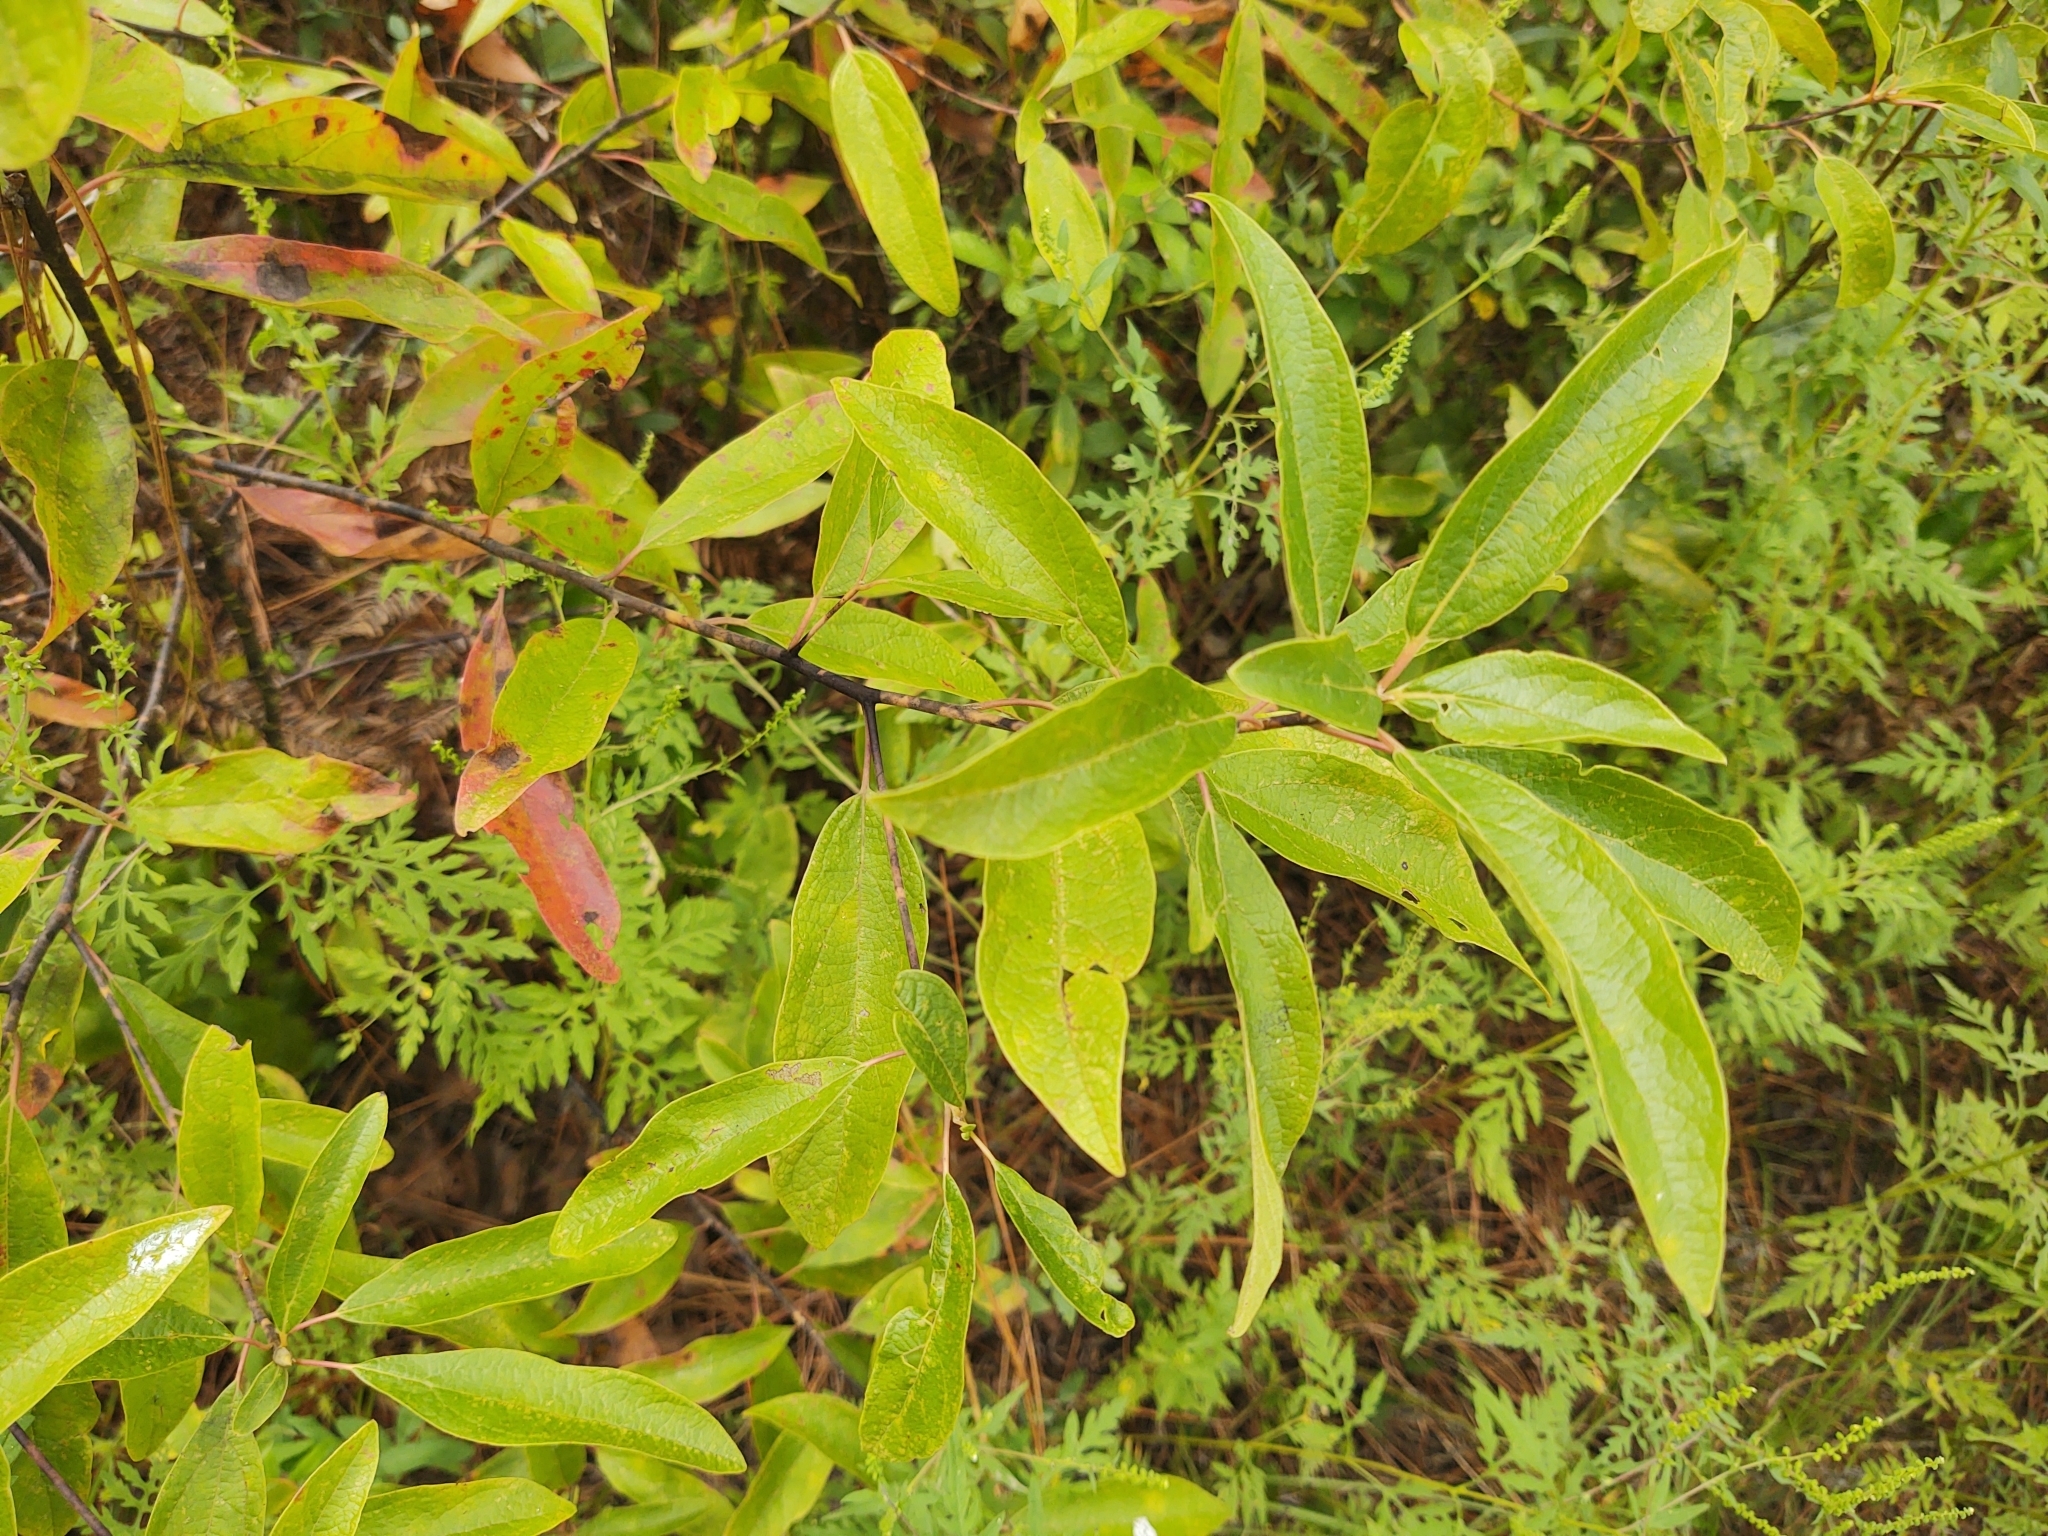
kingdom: Plantae
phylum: Tracheophyta
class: Magnoliopsida
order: Laurales
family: Lauraceae
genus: Sassafras
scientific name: Sassafras albidum
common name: Sassafras
